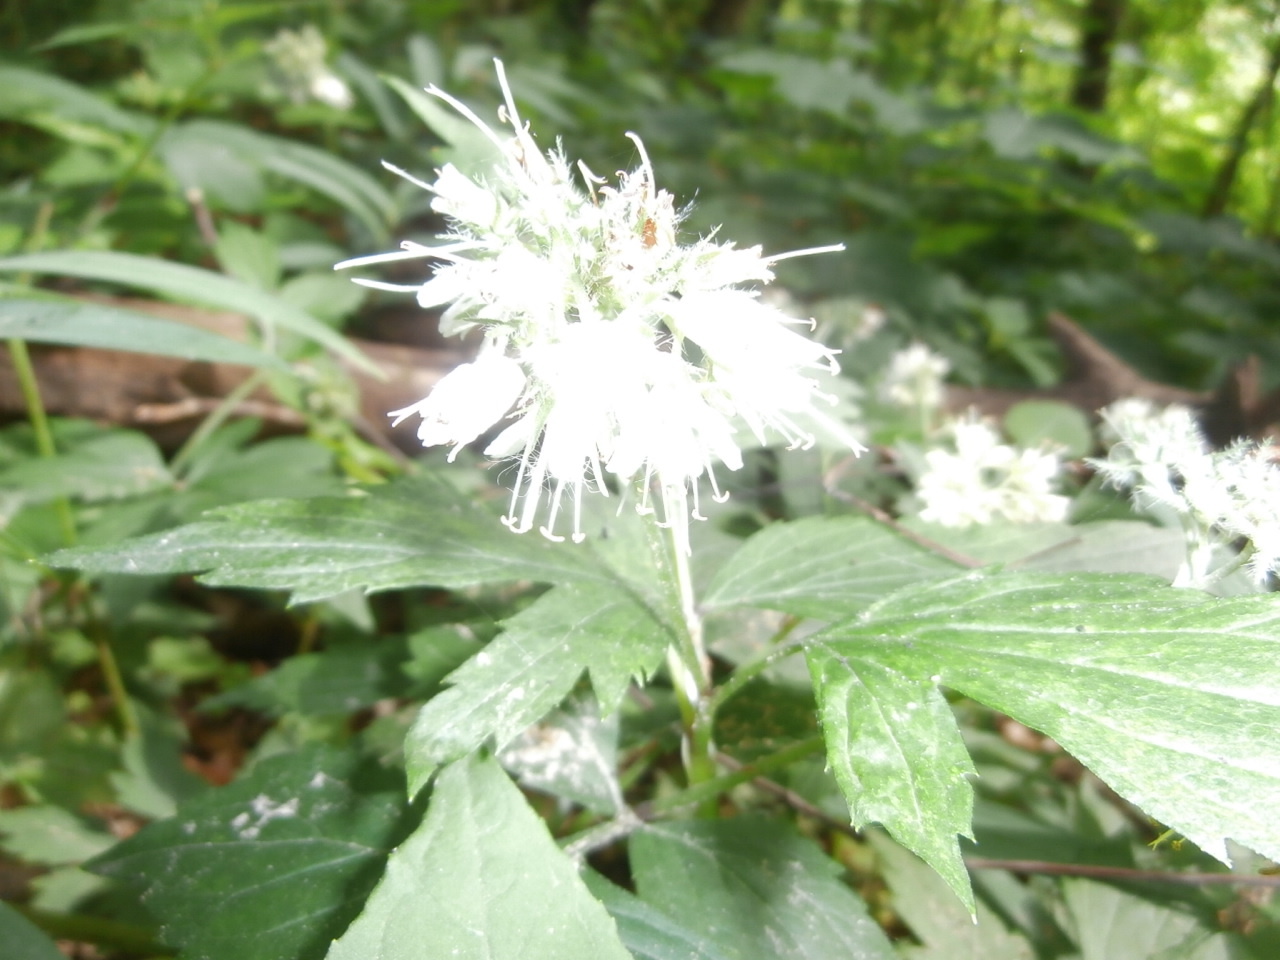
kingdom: Plantae
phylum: Tracheophyta
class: Magnoliopsida
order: Boraginales
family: Hydrophyllaceae
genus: Hydrophyllum
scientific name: Hydrophyllum virginianum
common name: Virginia waterleaf
